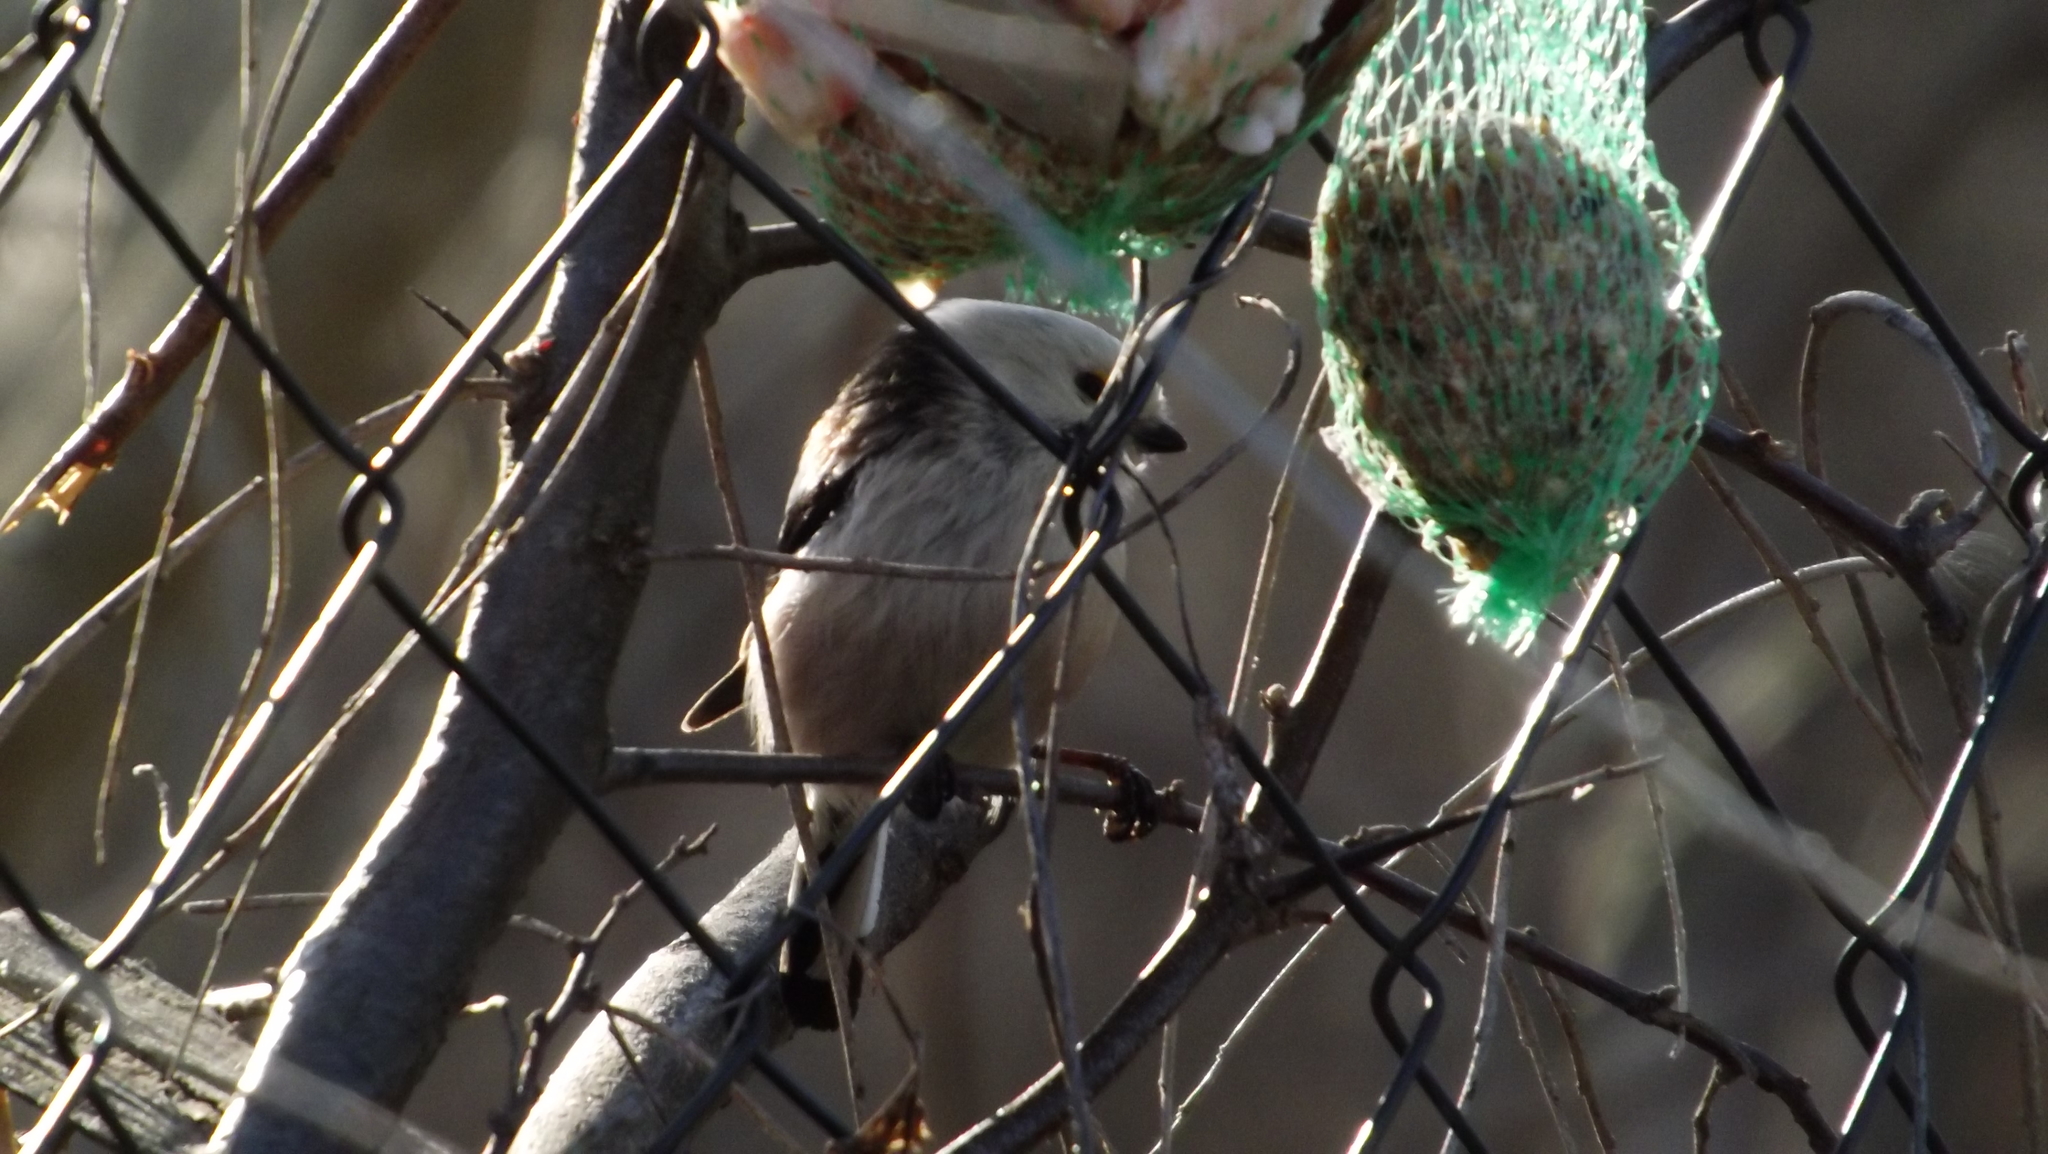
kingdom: Animalia
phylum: Chordata
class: Aves
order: Passeriformes
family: Aegithalidae
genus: Aegithalos
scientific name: Aegithalos caudatus
